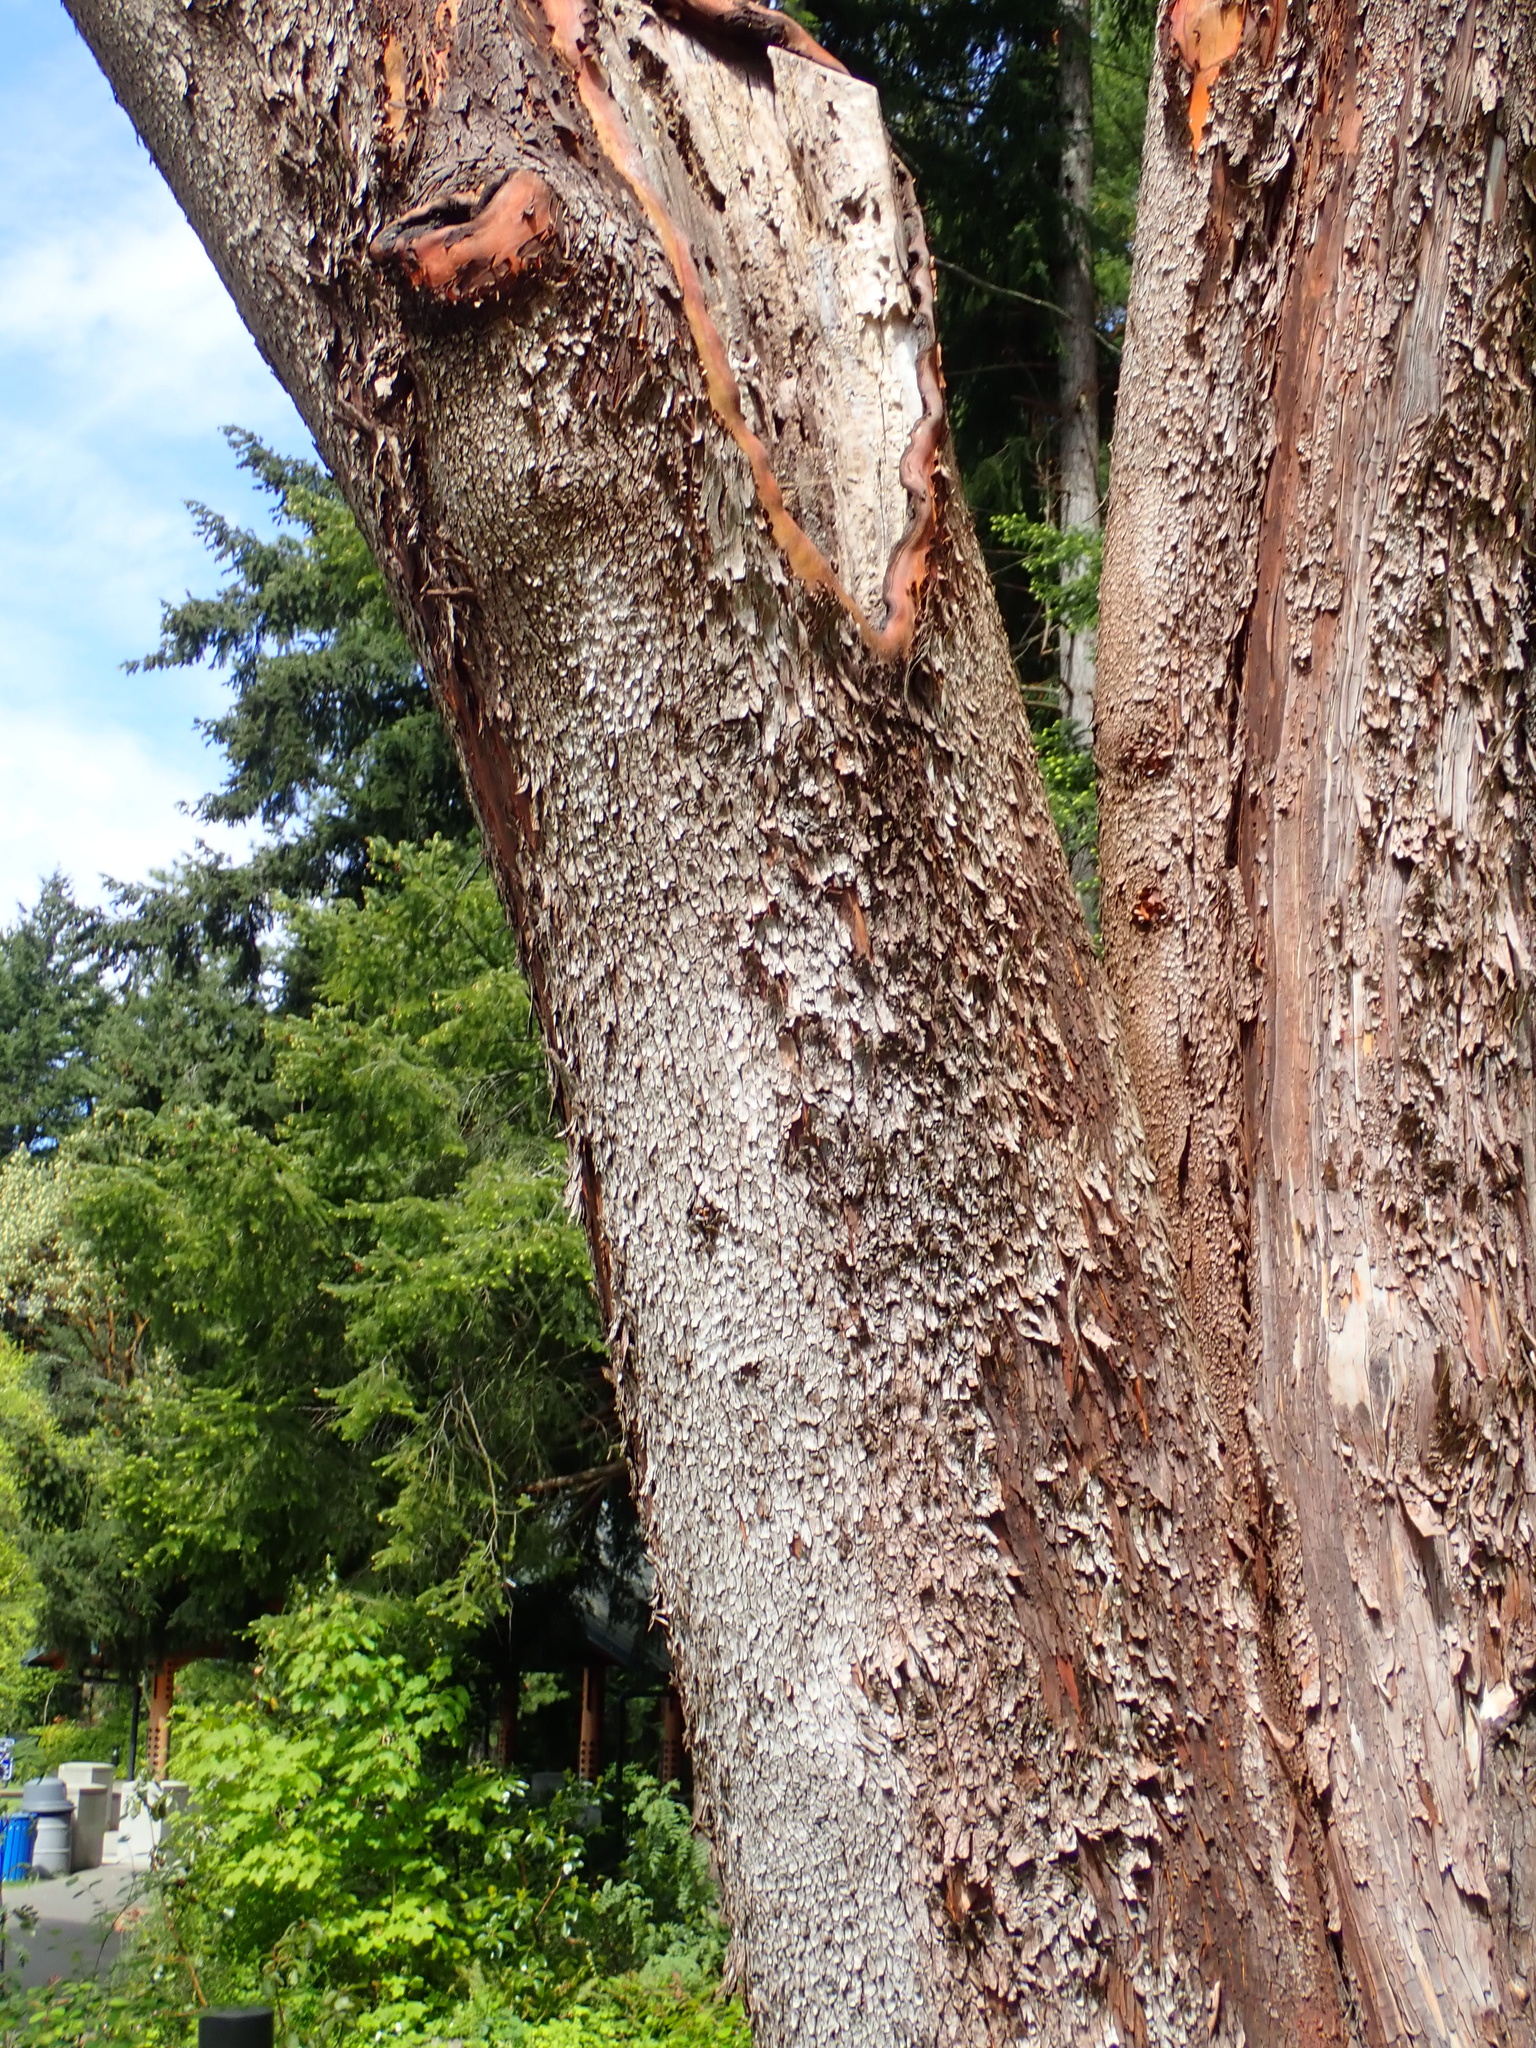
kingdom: Plantae
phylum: Tracheophyta
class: Magnoliopsida
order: Ericales
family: Ericaceae
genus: Arbutus
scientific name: Arbutus menziesii
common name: Pacific madrone
